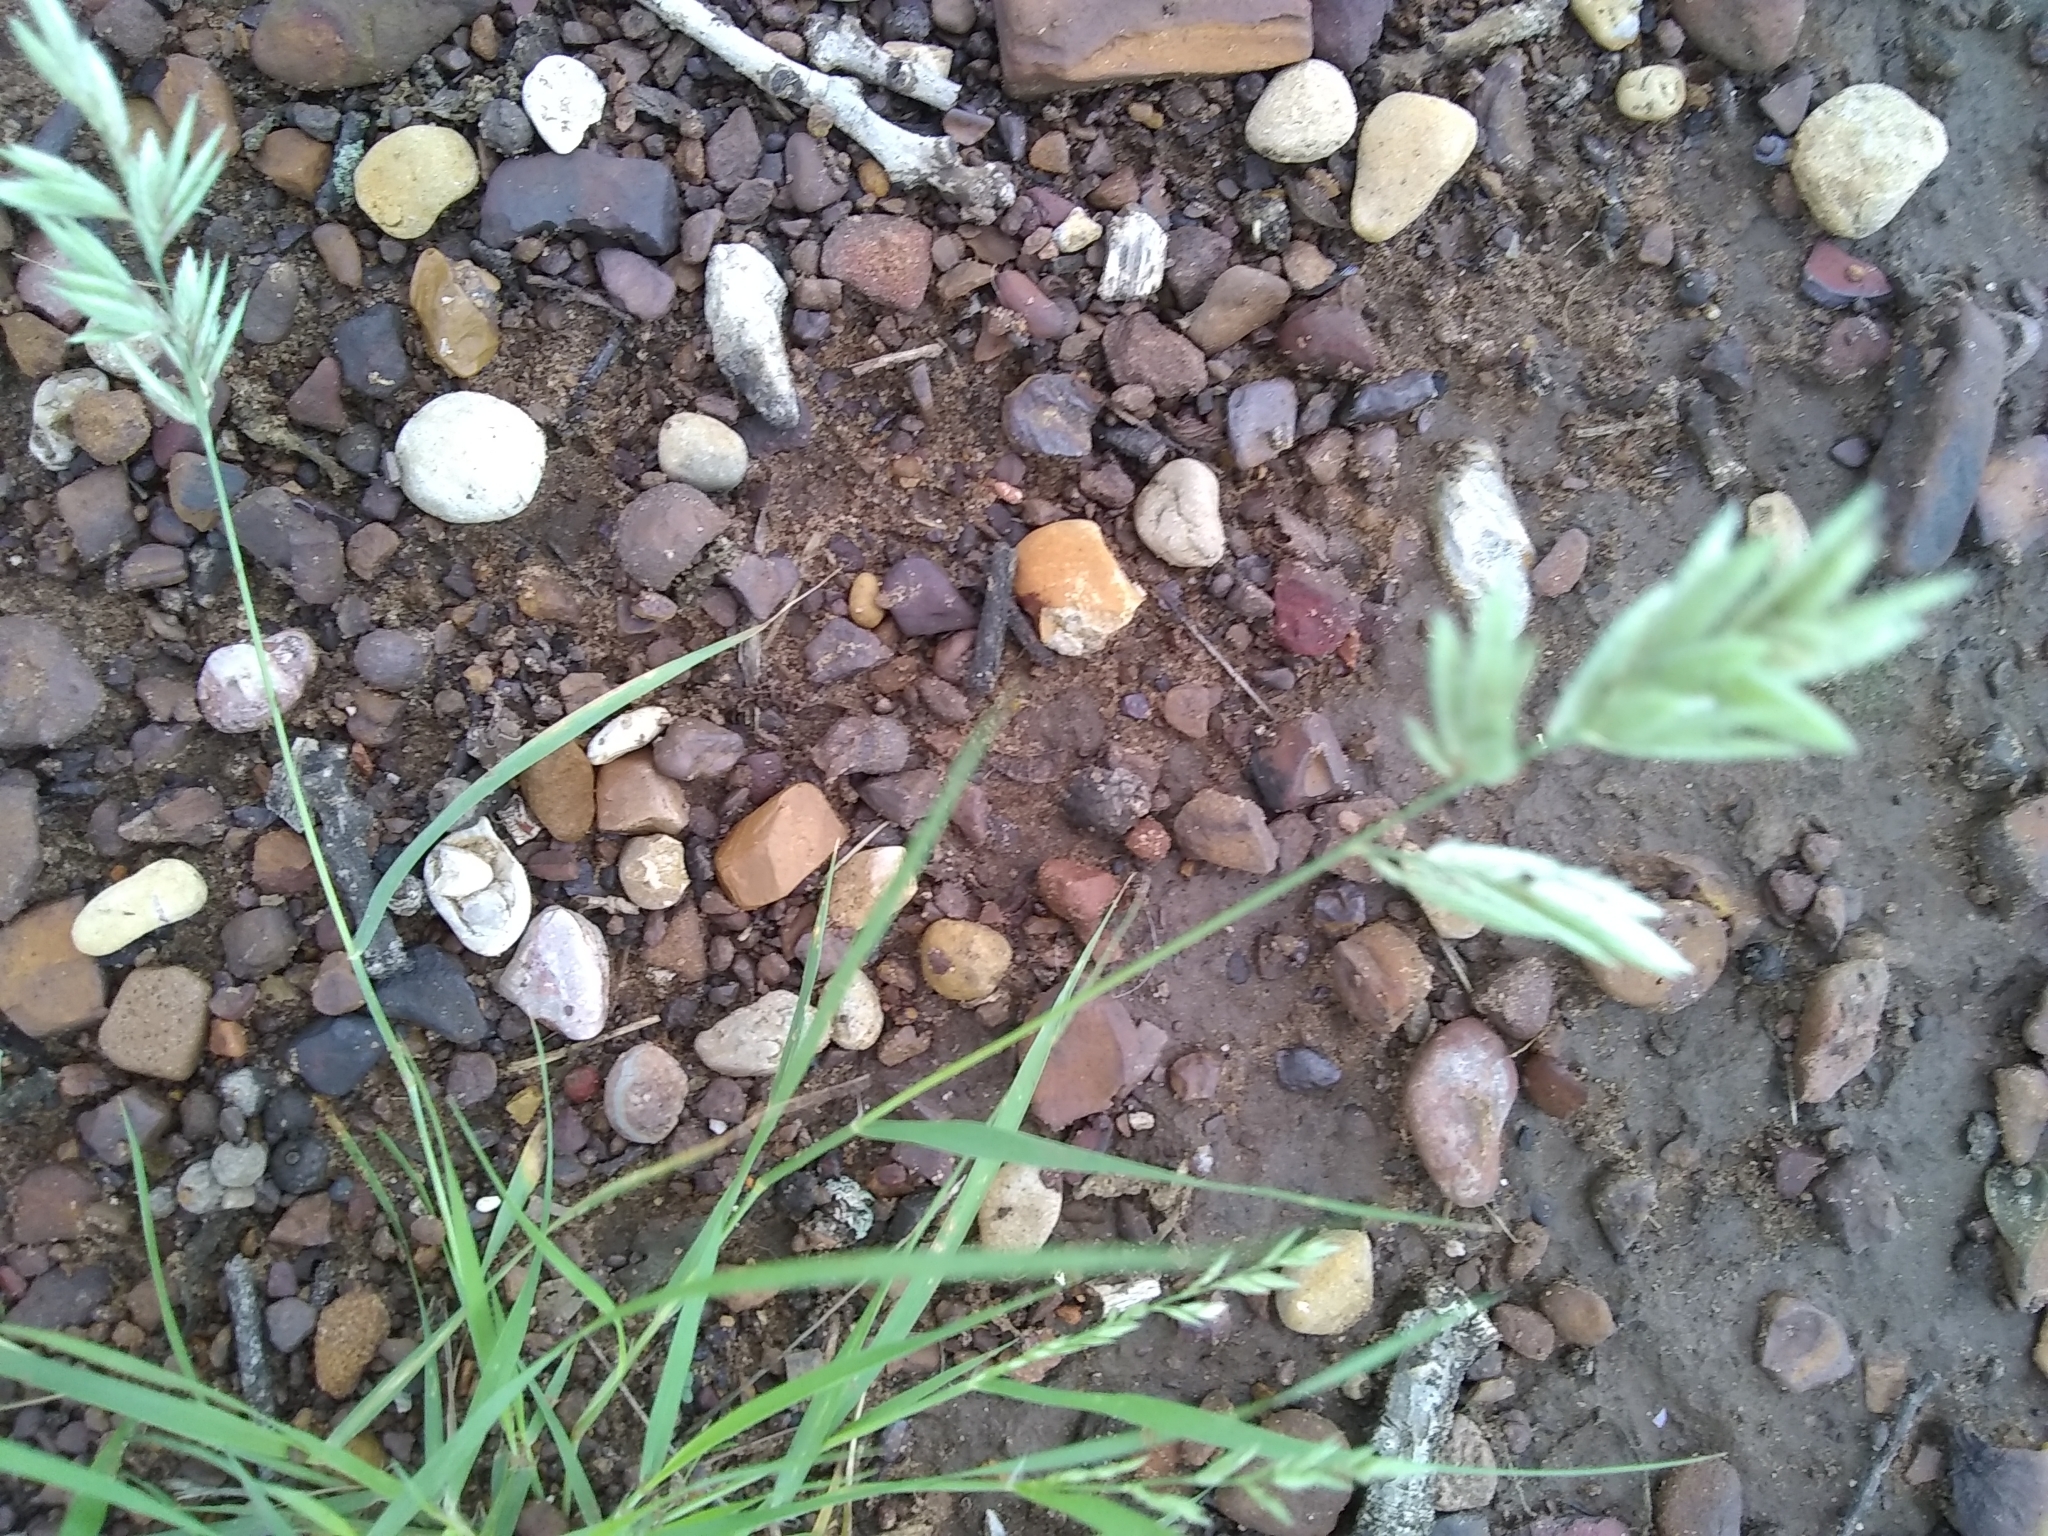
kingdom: Plantae
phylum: Tracheophyta
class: Liliopsida
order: Poales
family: Poaceae
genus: Eragrostis
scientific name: Eragrostis secundiflora
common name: Red love grass
